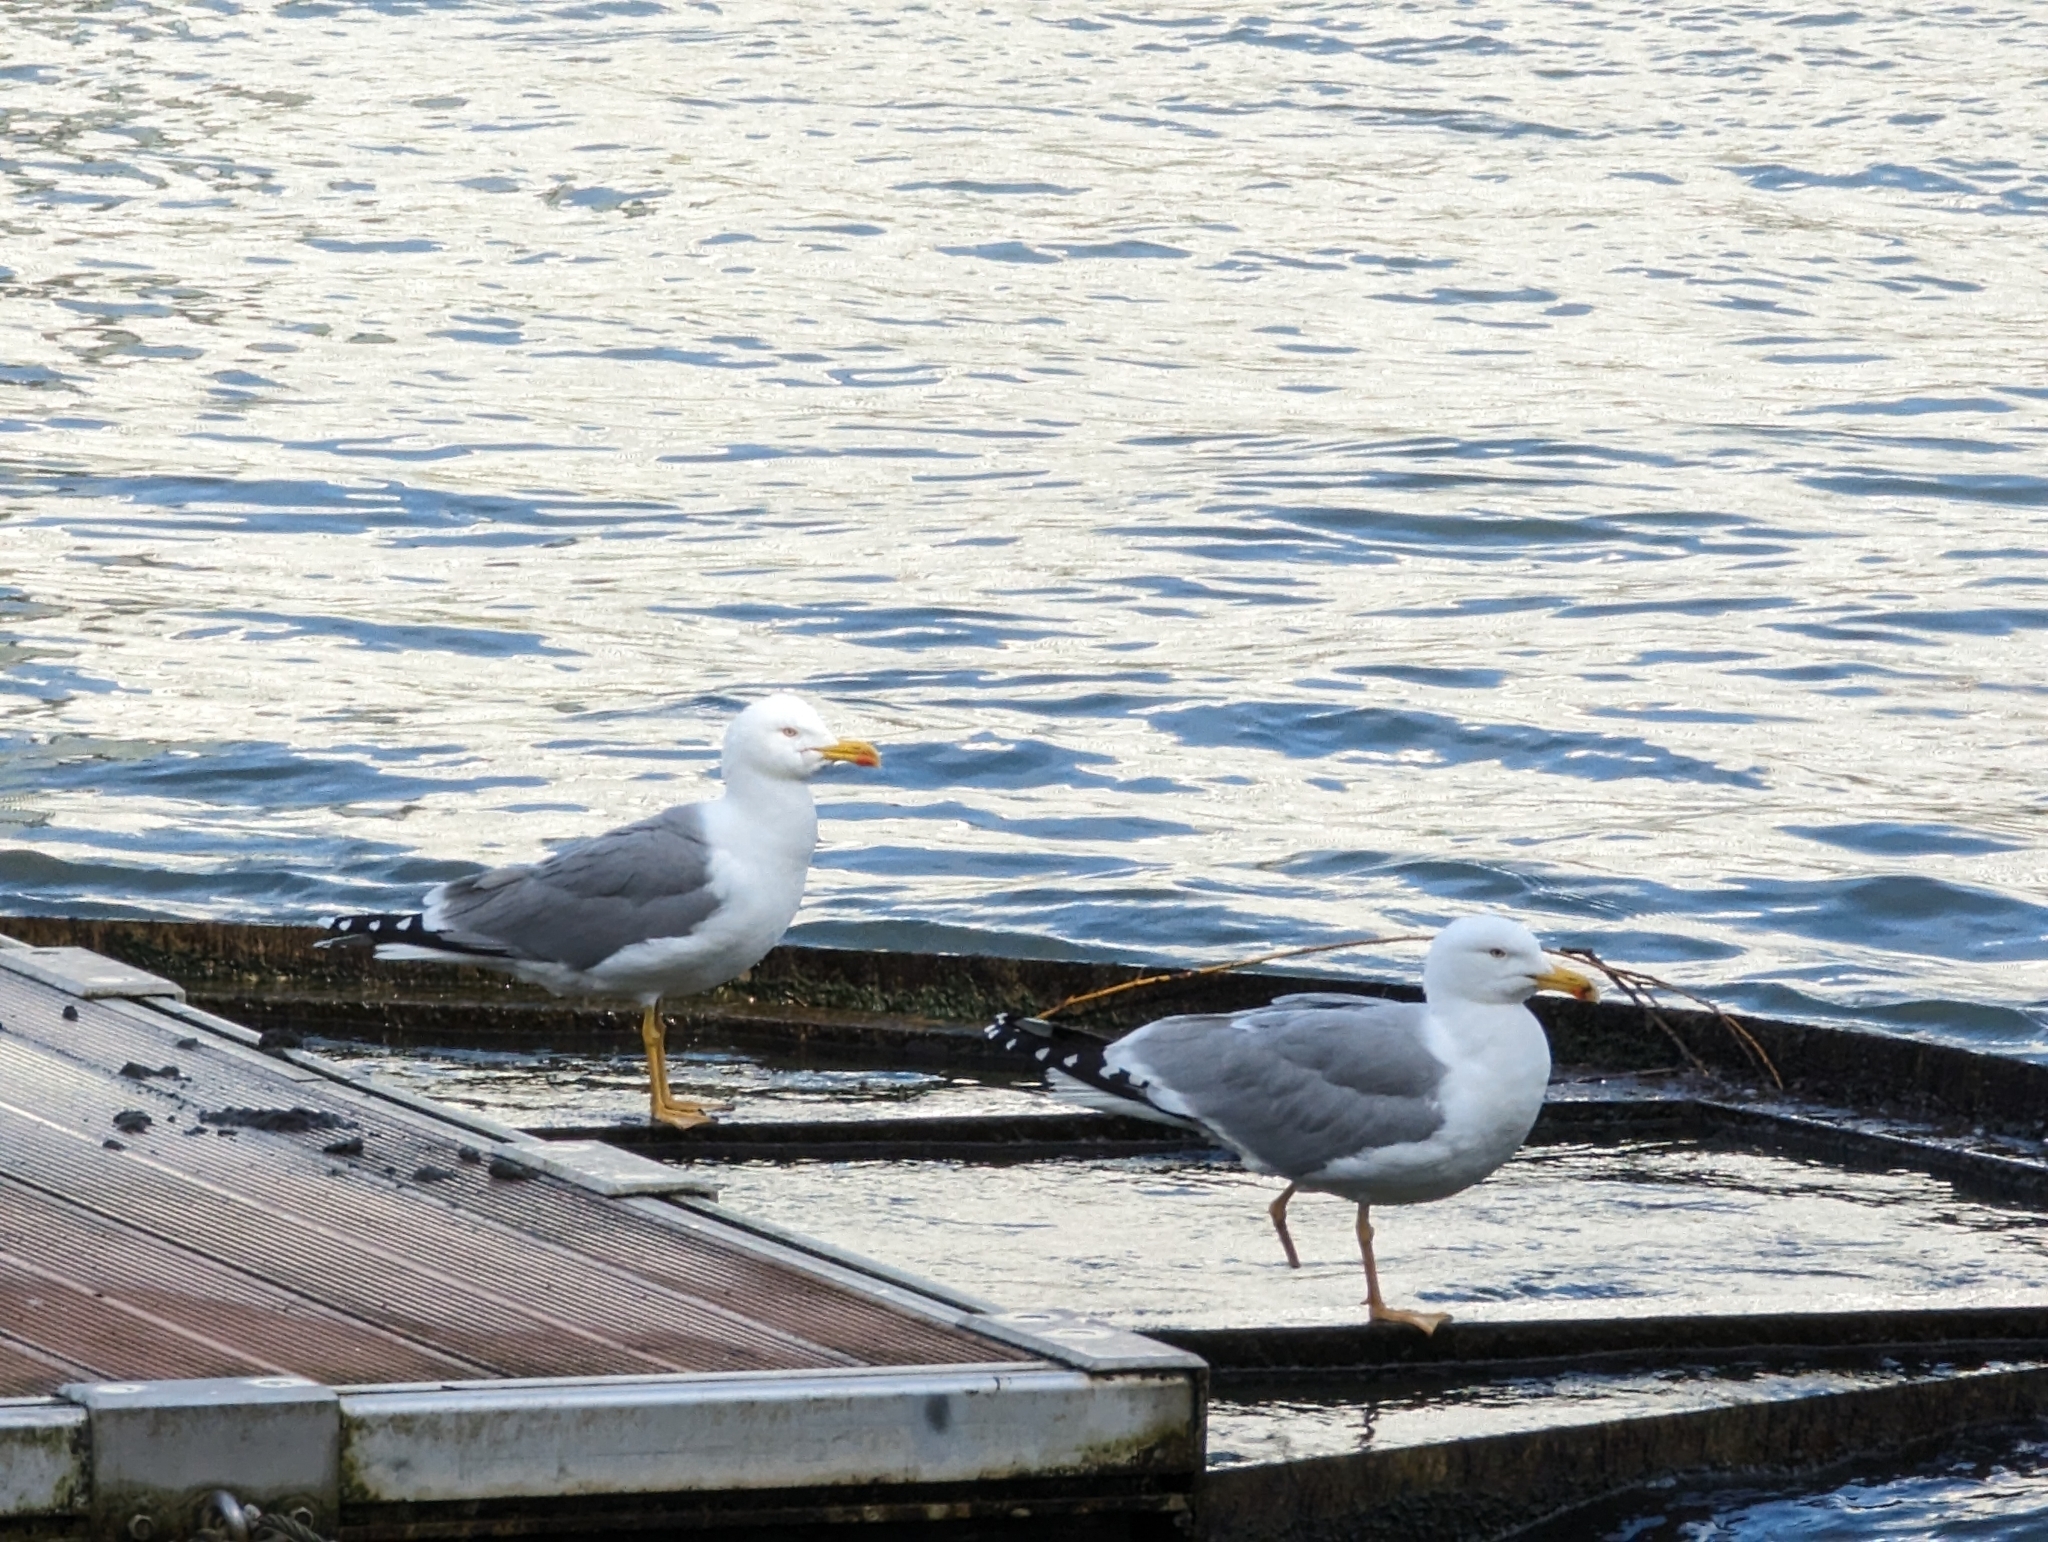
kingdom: Animalia
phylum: Chordata
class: Aves
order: Charadriiformes
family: Laridae
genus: Larus
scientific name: Larus michahellis
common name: Yellow-legged gull
